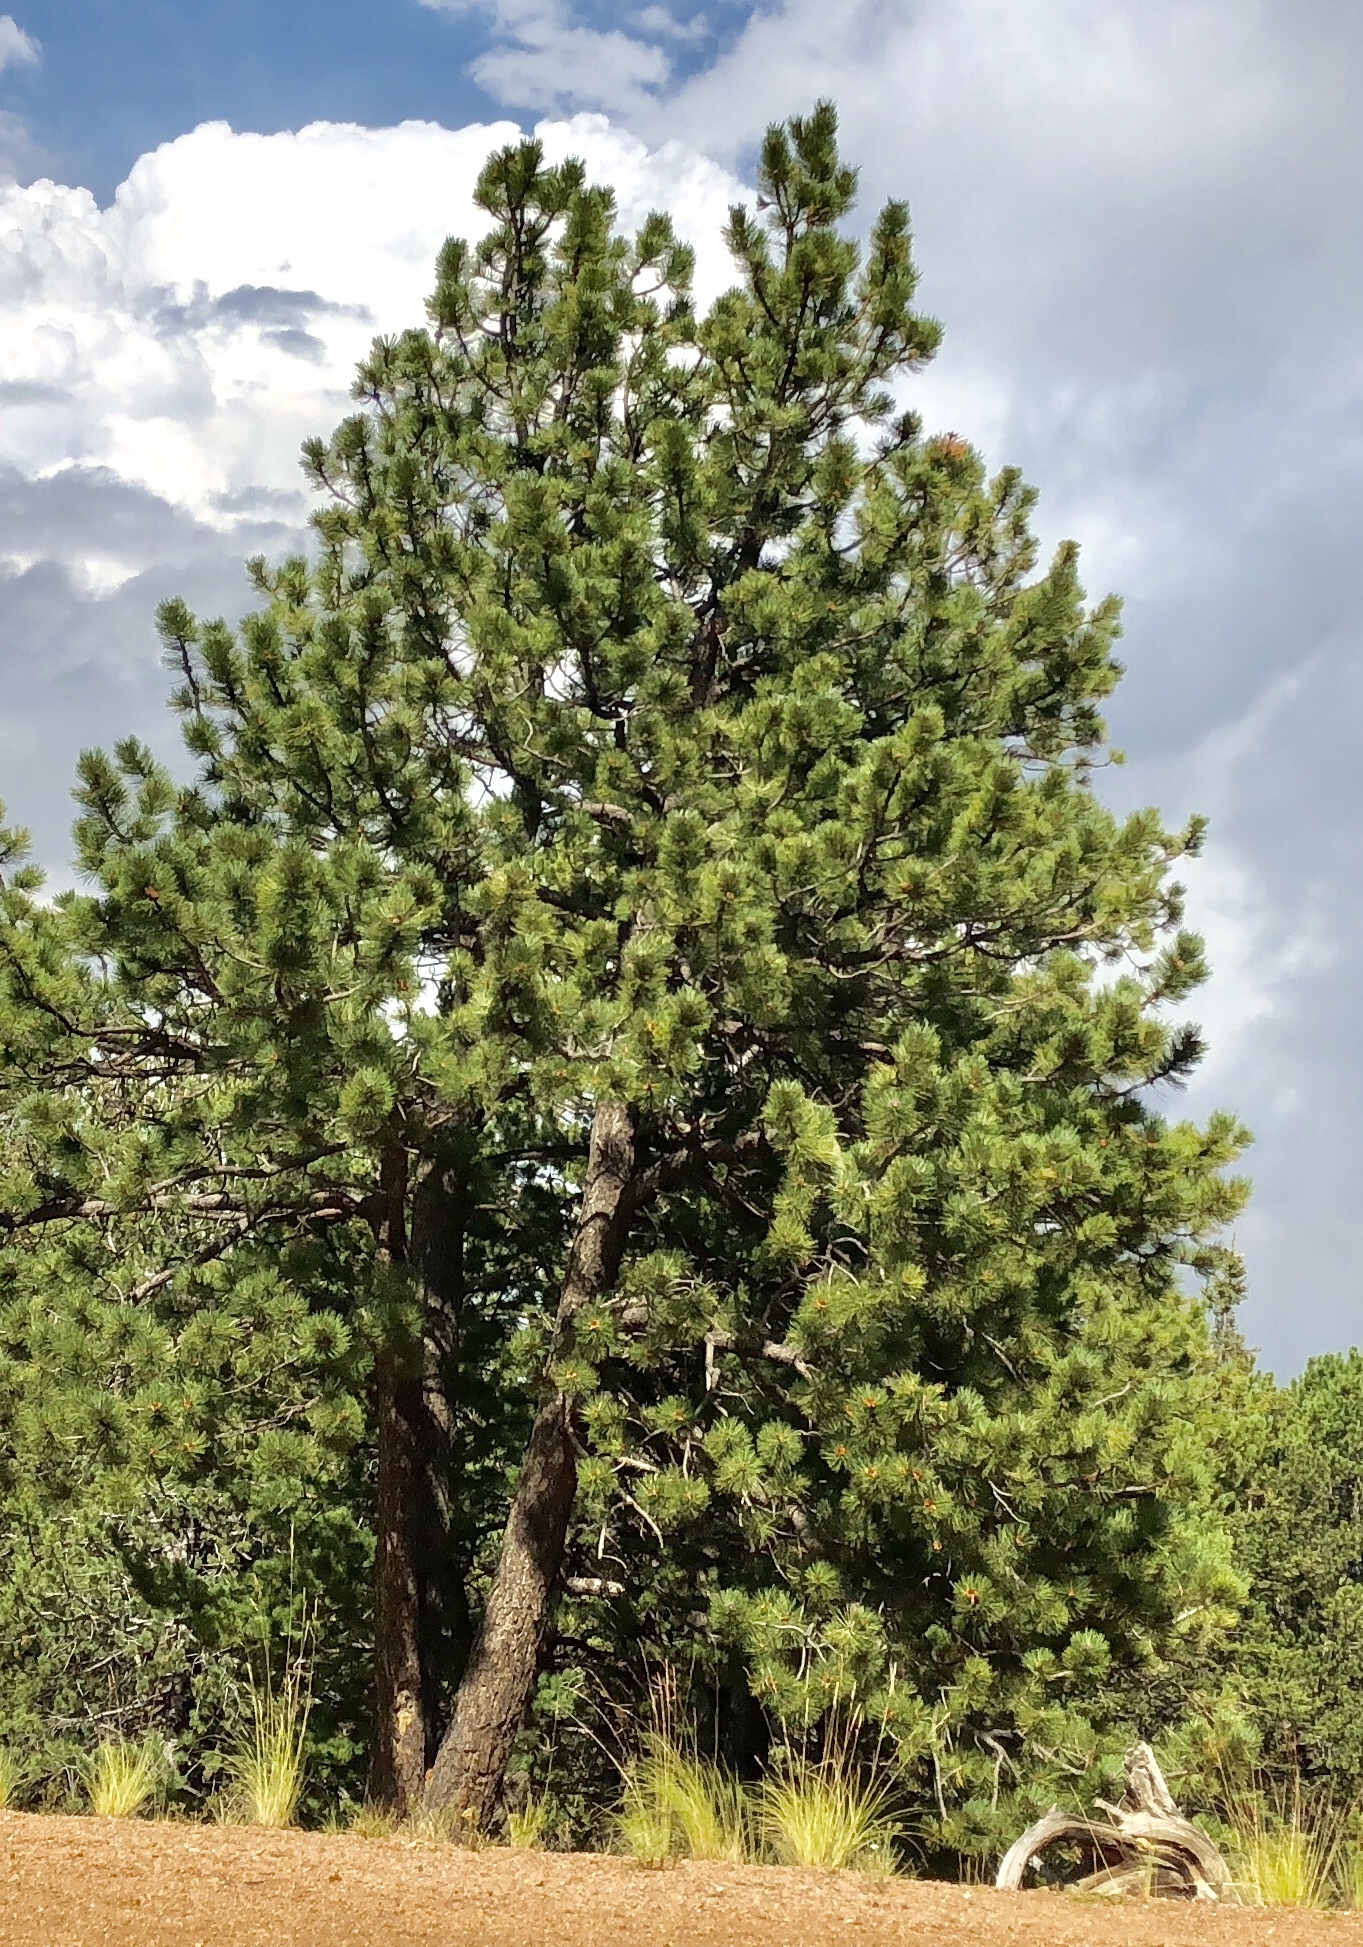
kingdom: Plantae
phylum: Tracheophyta
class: Pinopsida
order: Pinales
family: Pinaceae
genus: Pinus
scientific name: Pinus ponderosa
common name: Western yellow-pine
